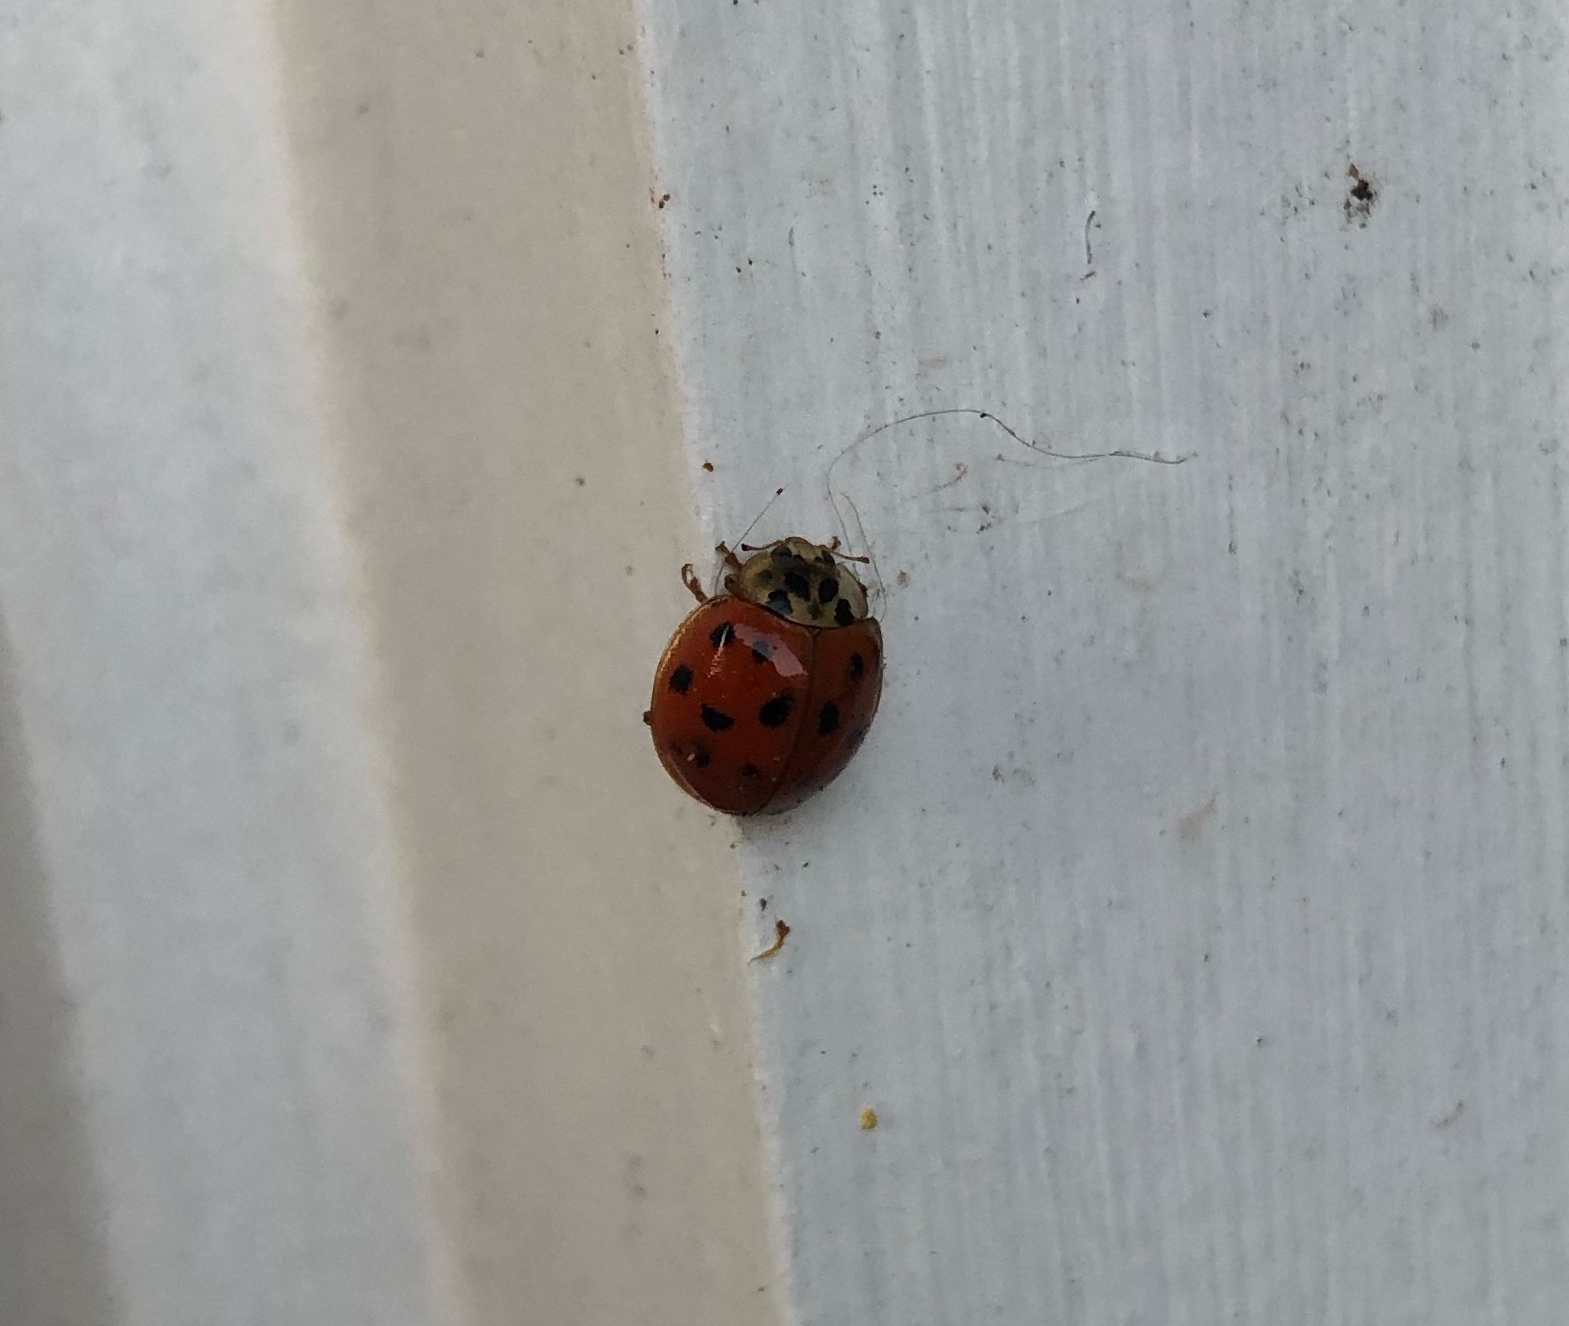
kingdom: Animalia
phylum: Arthropoda
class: Insecta
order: Coleoptera
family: Coccinellidae
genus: Harmonia
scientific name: Harmonia axyridis
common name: Harlequin ladybird
